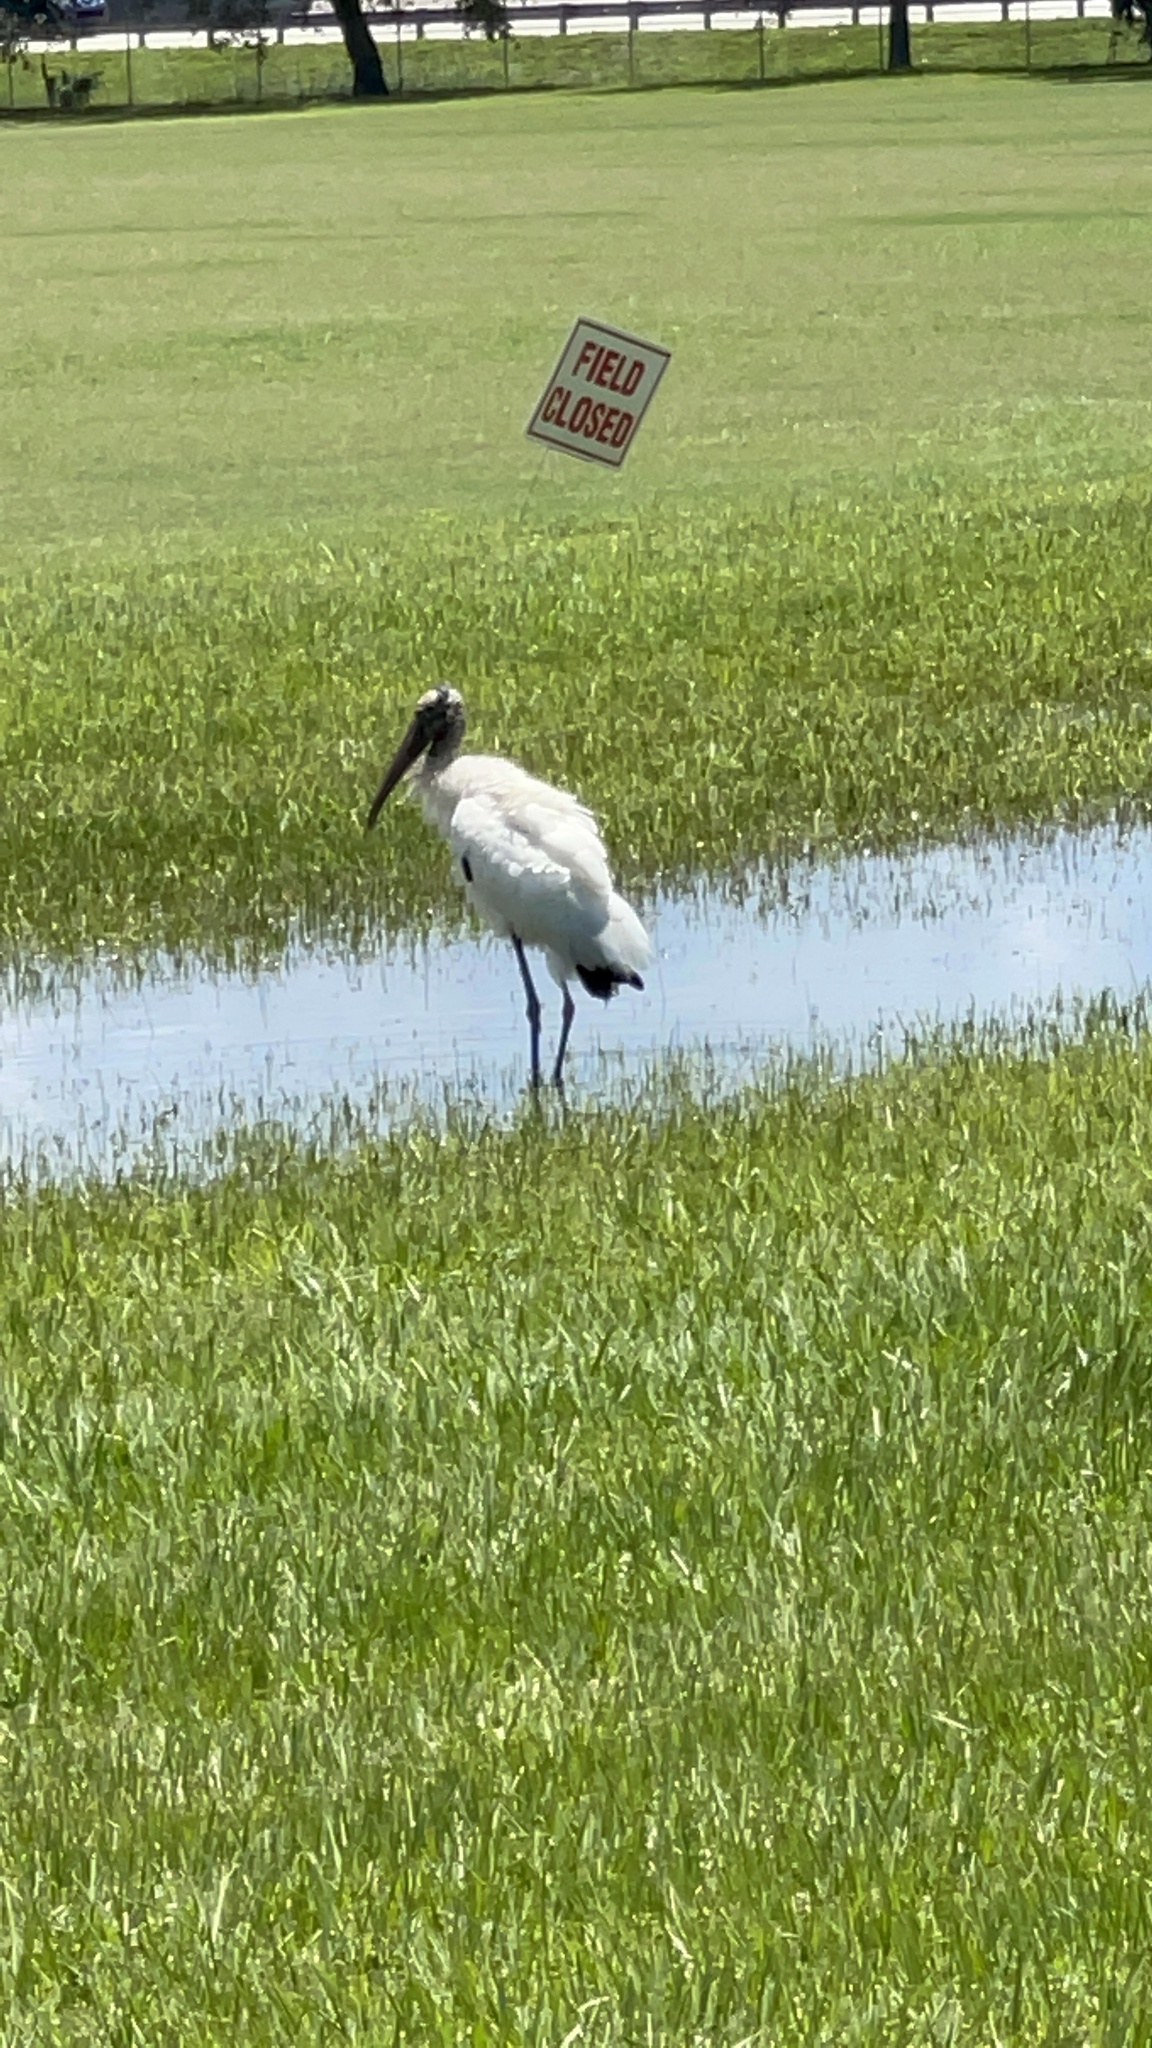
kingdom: Animalia
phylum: Chordata
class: Aves
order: Ciconiiformes
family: Ciconiidae
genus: Mycteria
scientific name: Mycteria americana
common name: Wood stork
